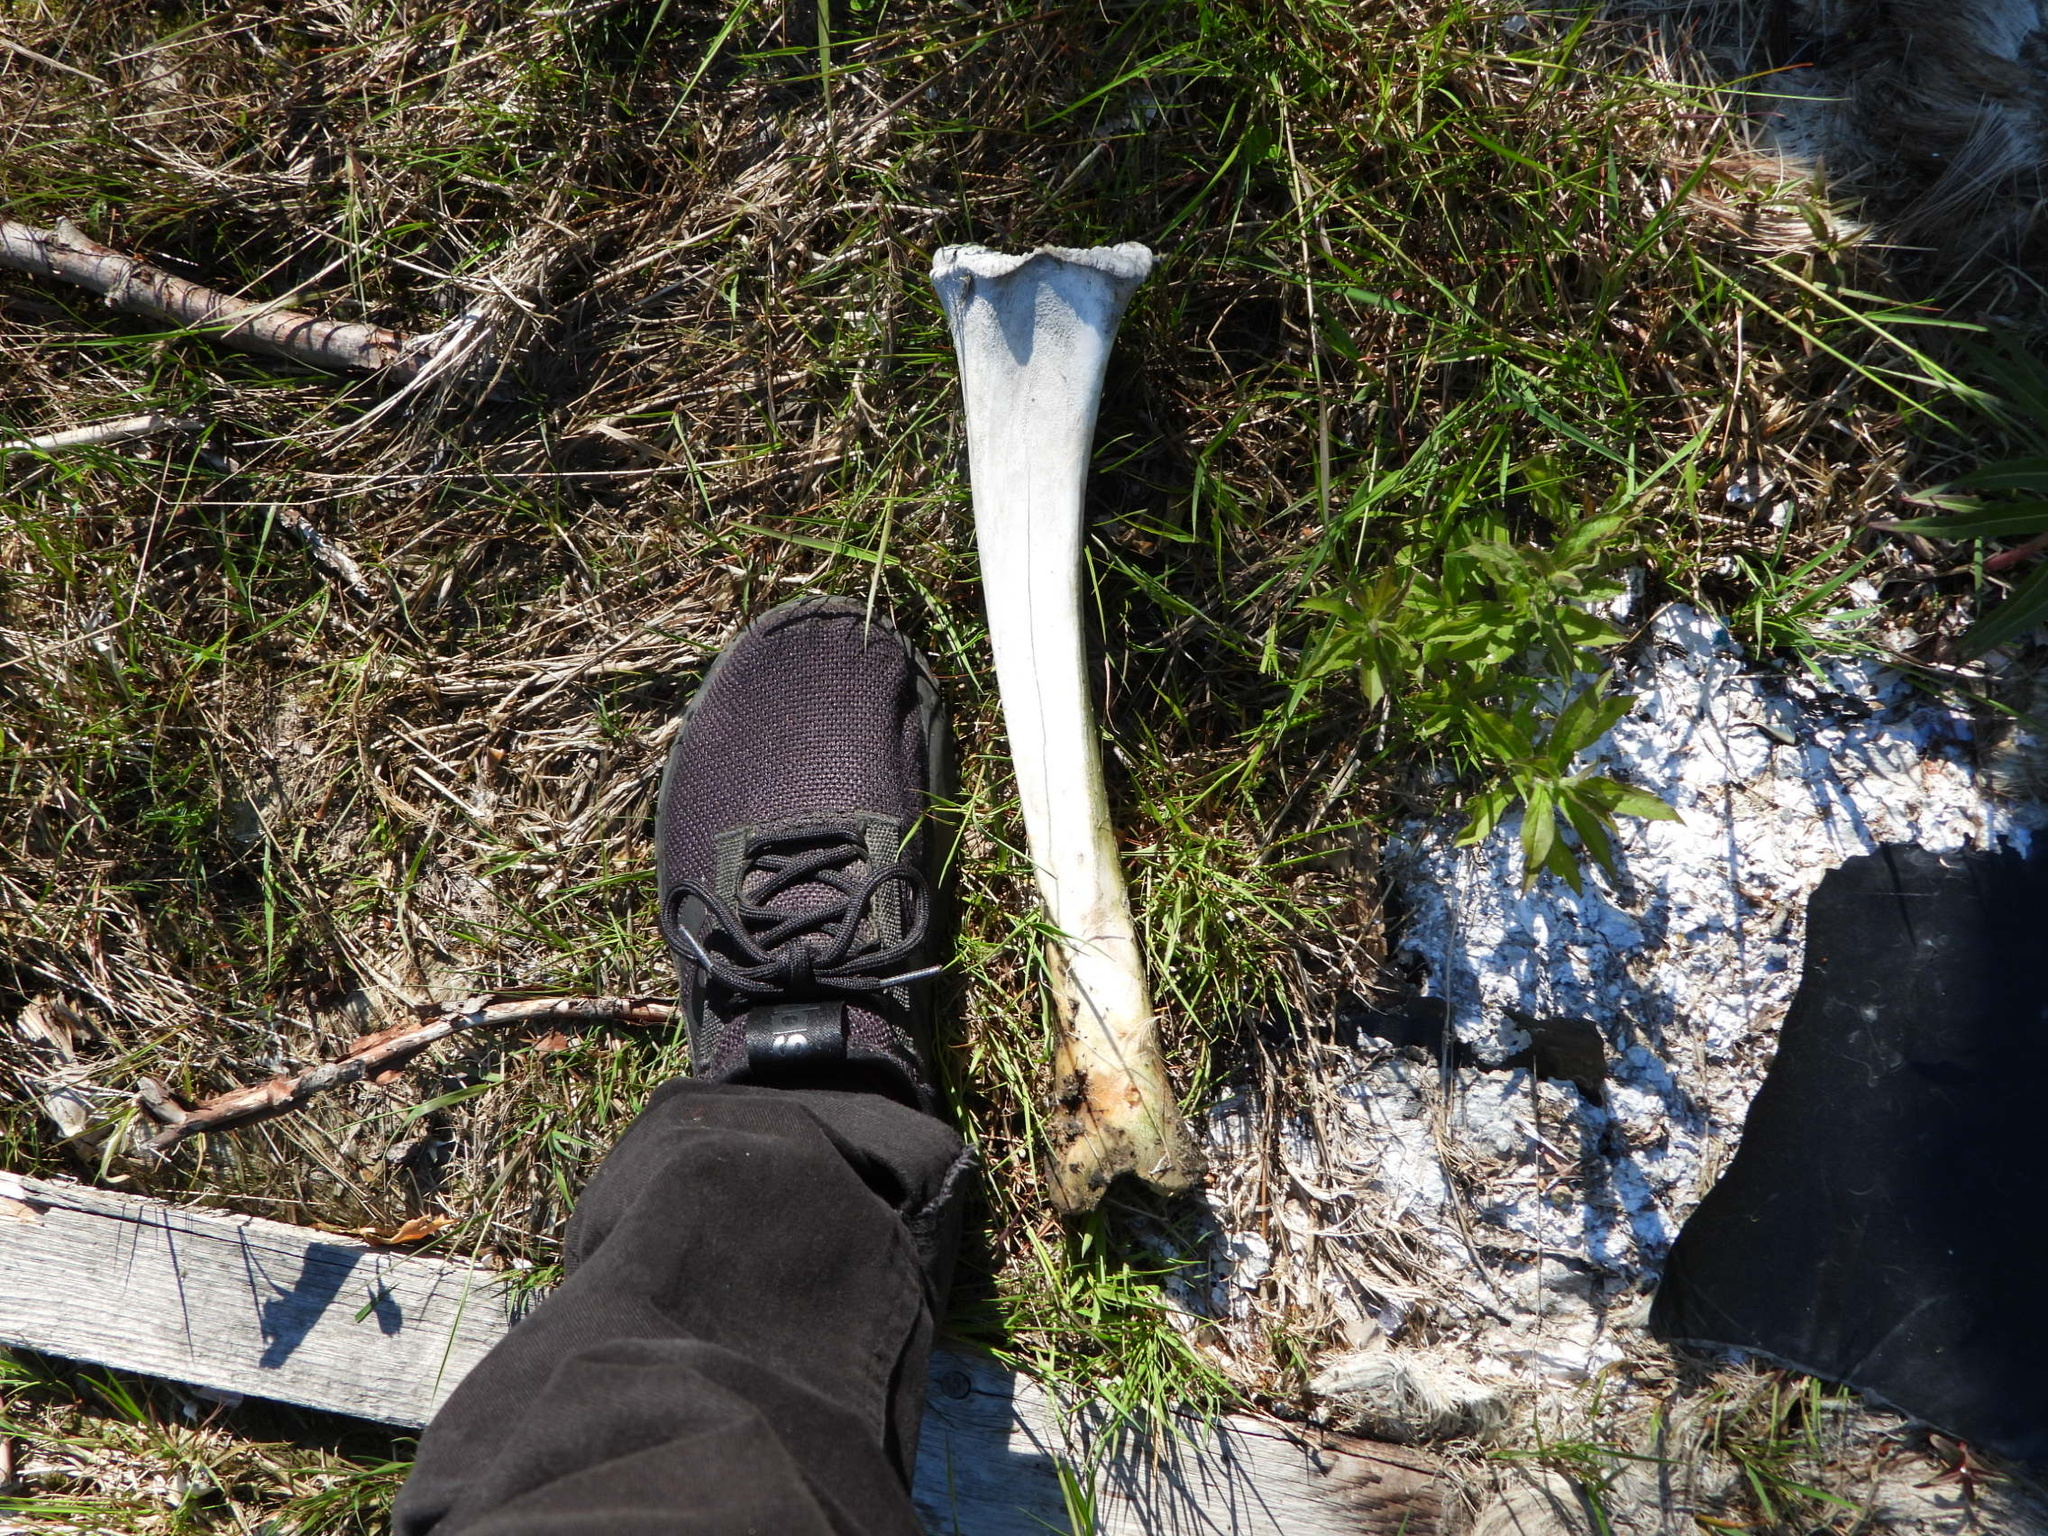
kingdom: Animalia
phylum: Chordata
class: Mammalia
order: Artiodactyla
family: Cervidae
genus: Alces
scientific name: Alces alces
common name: Moose
